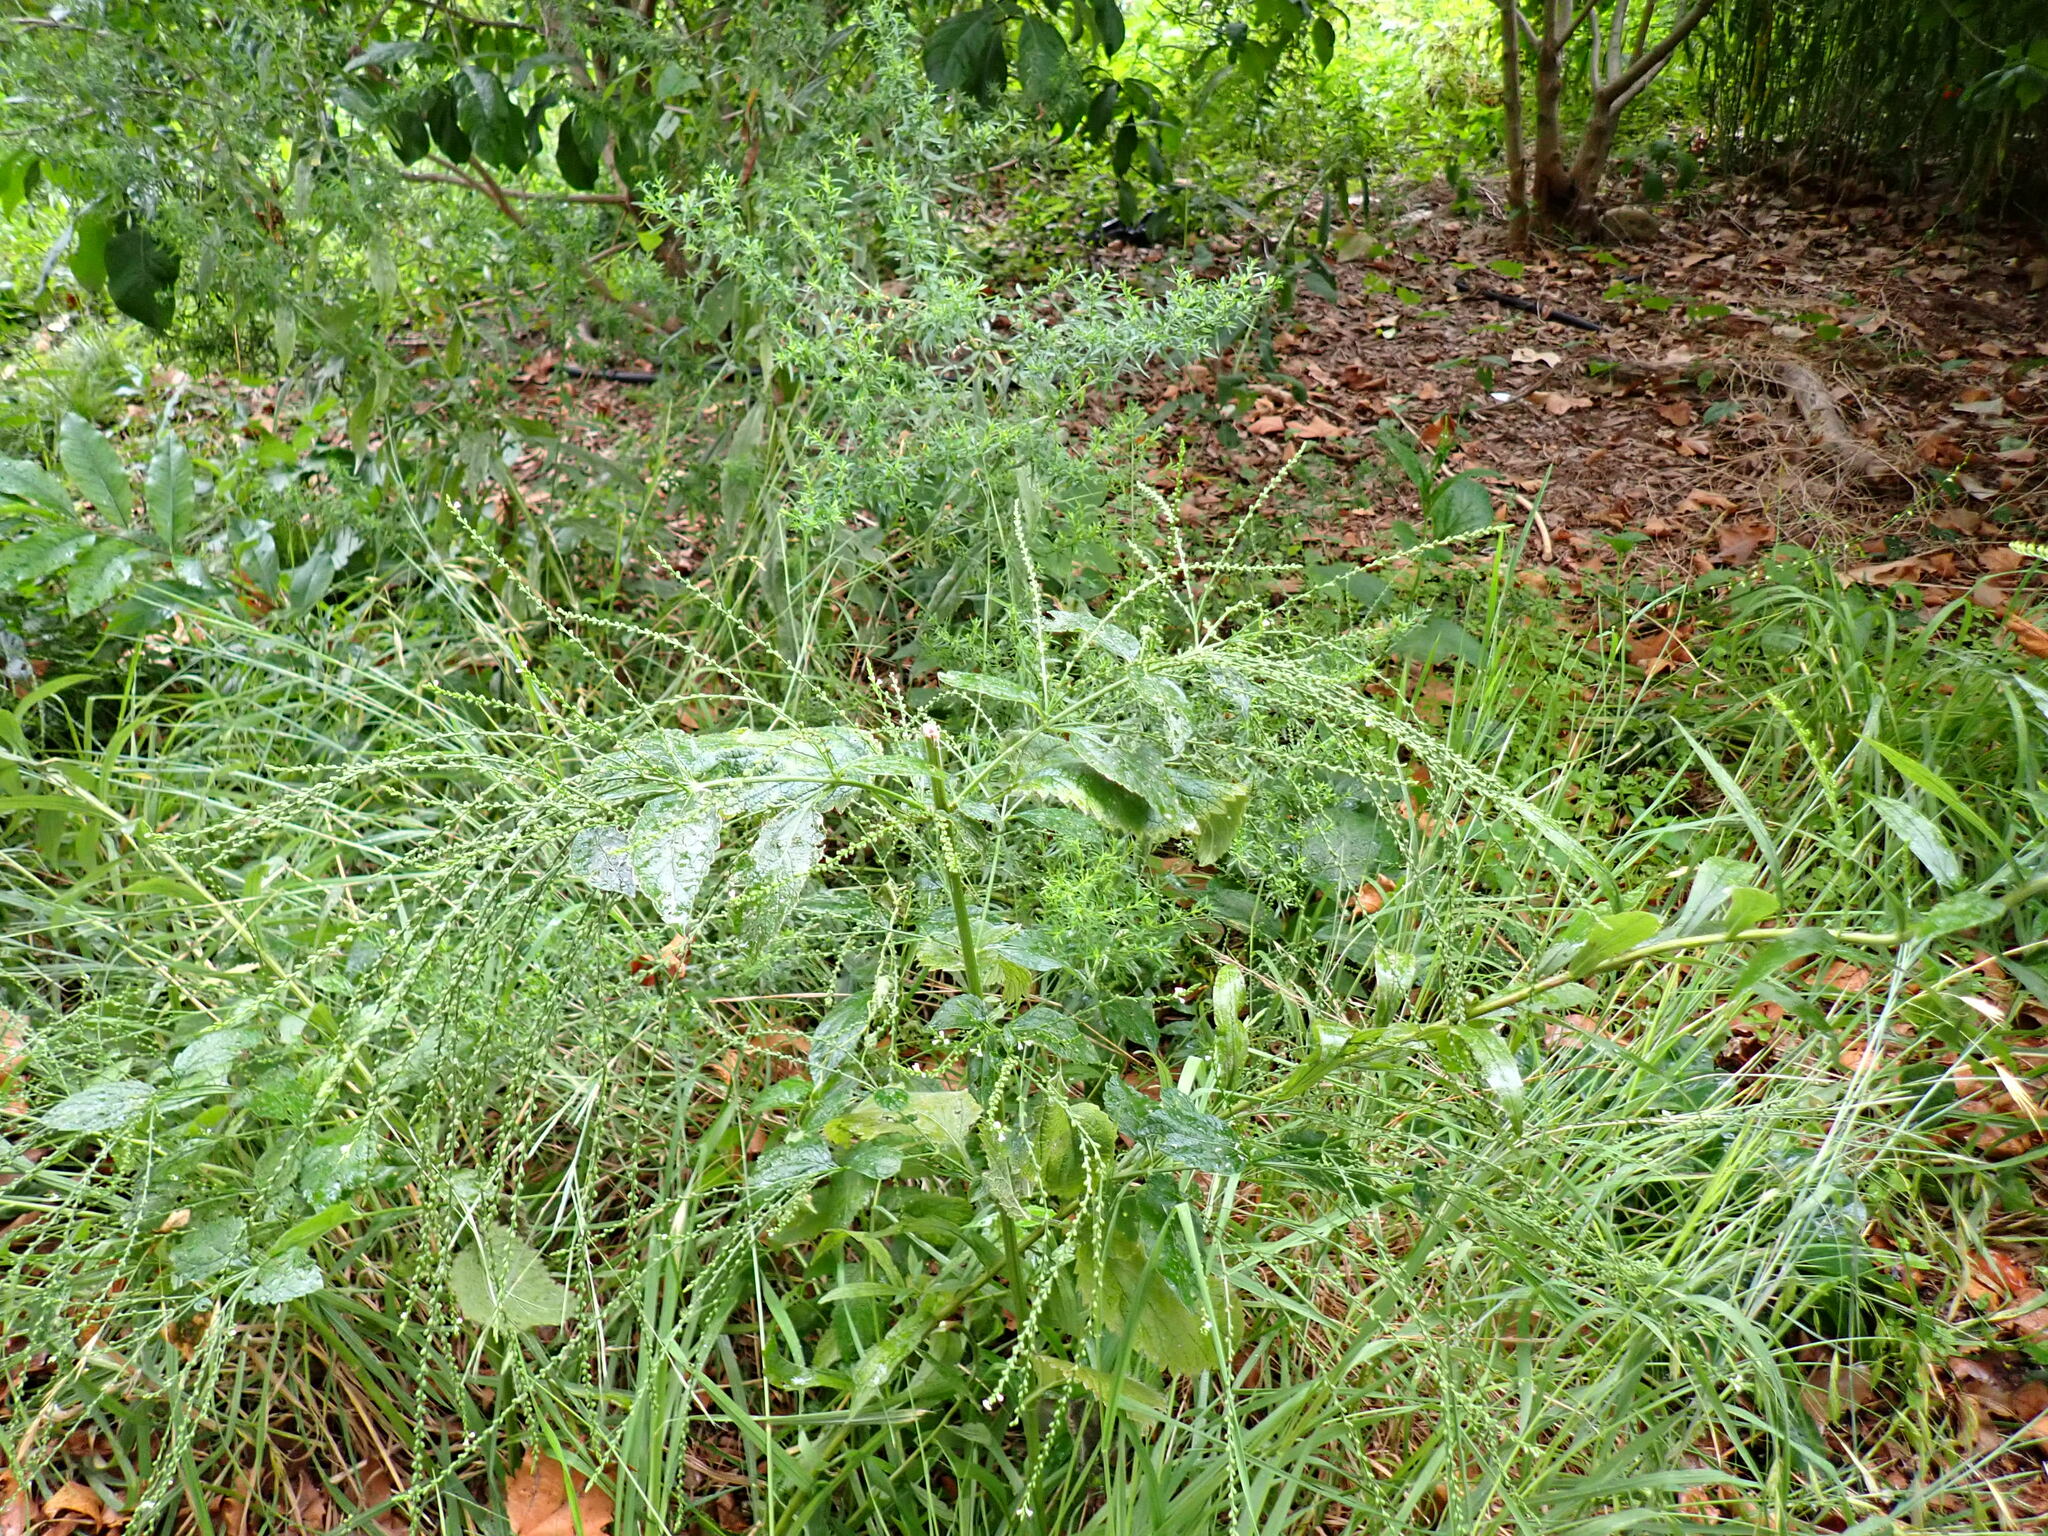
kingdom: Plantae
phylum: Tracheophyta
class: Magnoliopsida
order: Lamiales
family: Verbenaceae
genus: Verbena
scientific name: Verbena urticifolia
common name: Nettle-leaved vervain
